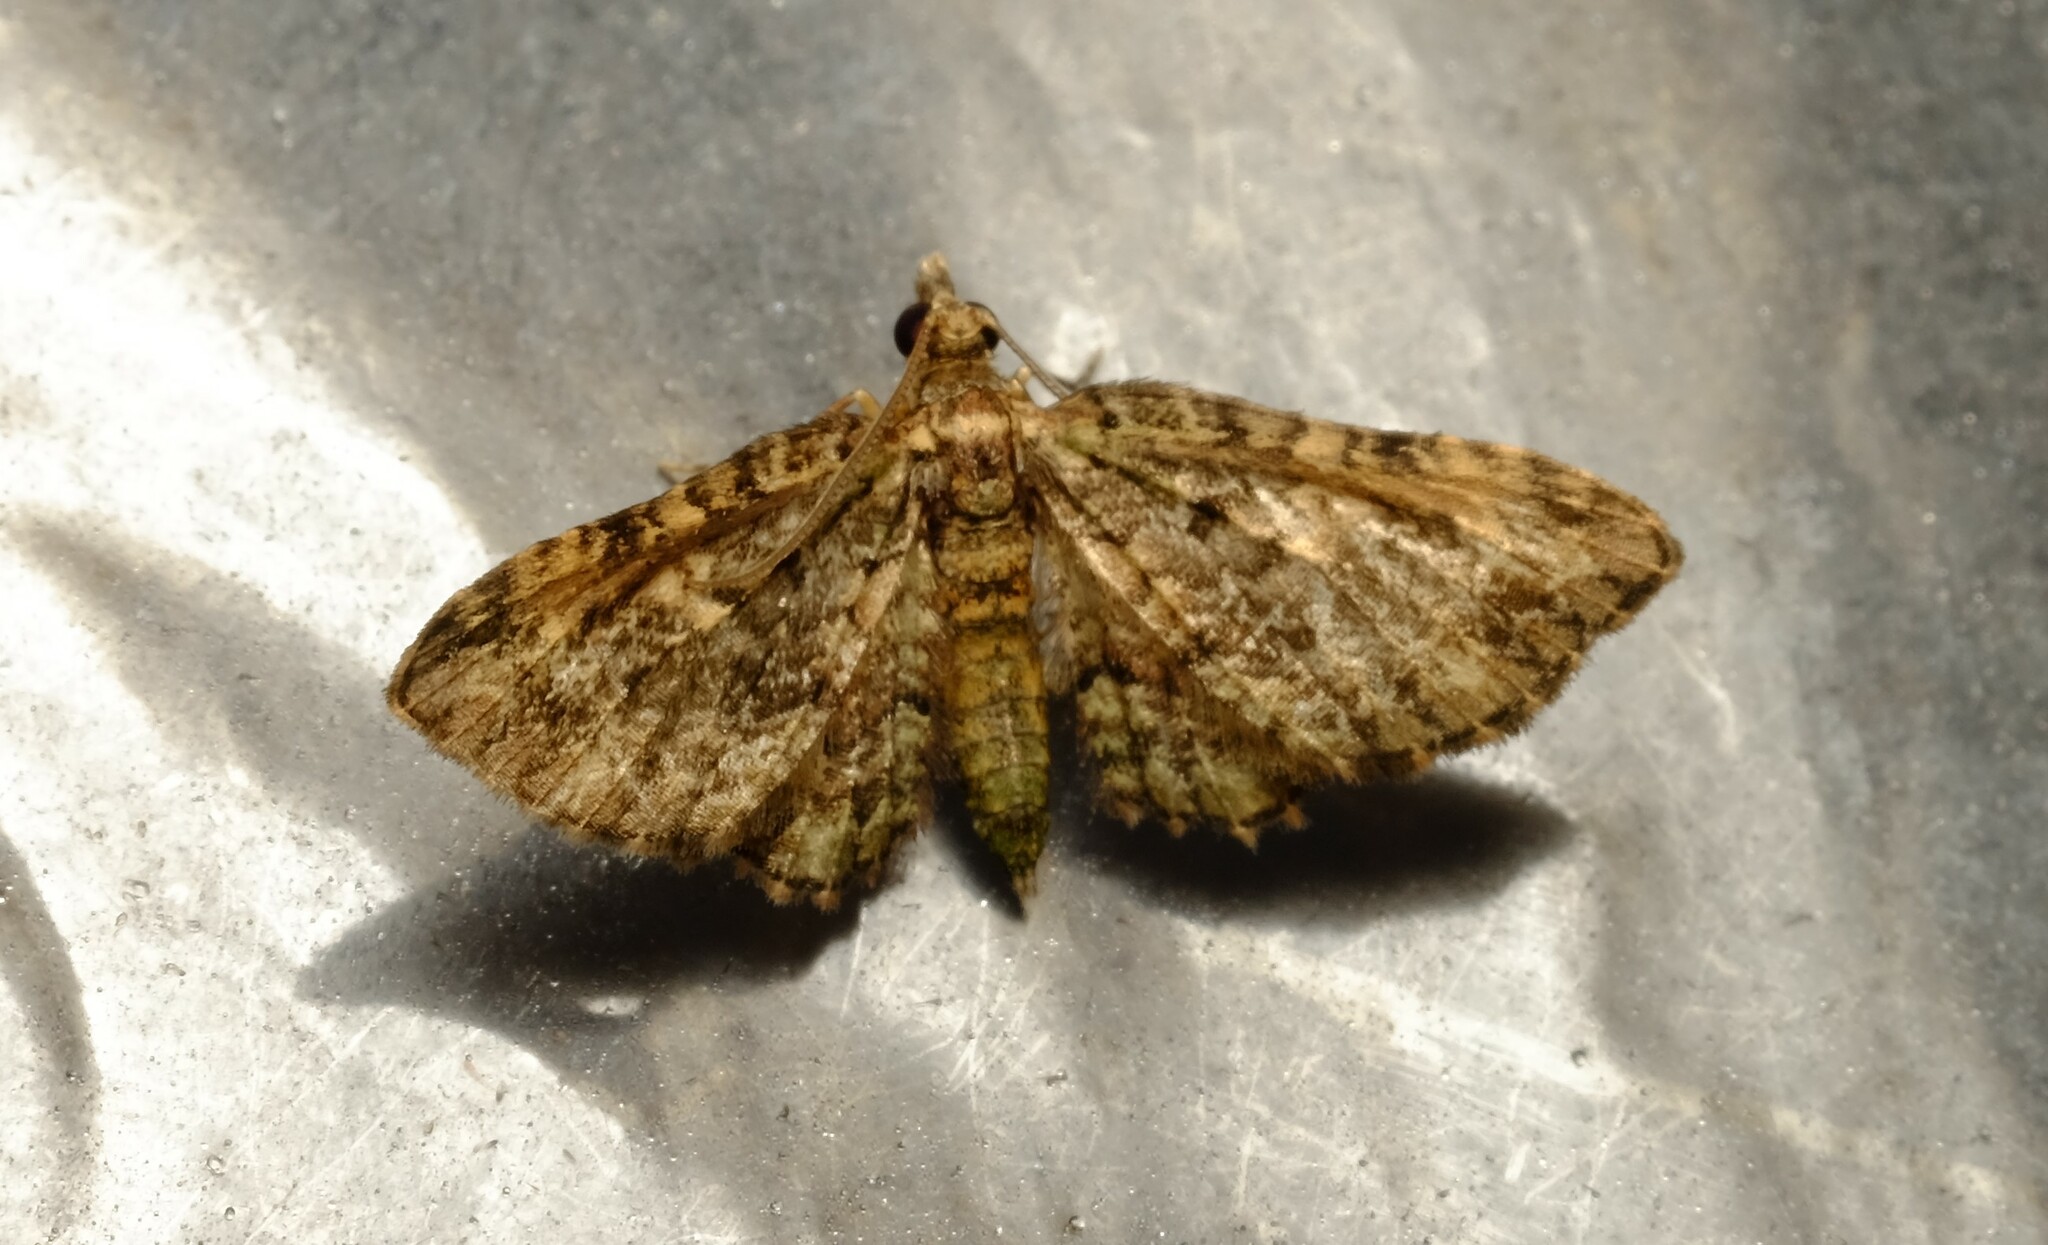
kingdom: Animalia
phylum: Arthropoda
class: Insecta
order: Lepidoptera
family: Geometridae
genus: Chloroclystis
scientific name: Chloroclystis catastreptes
